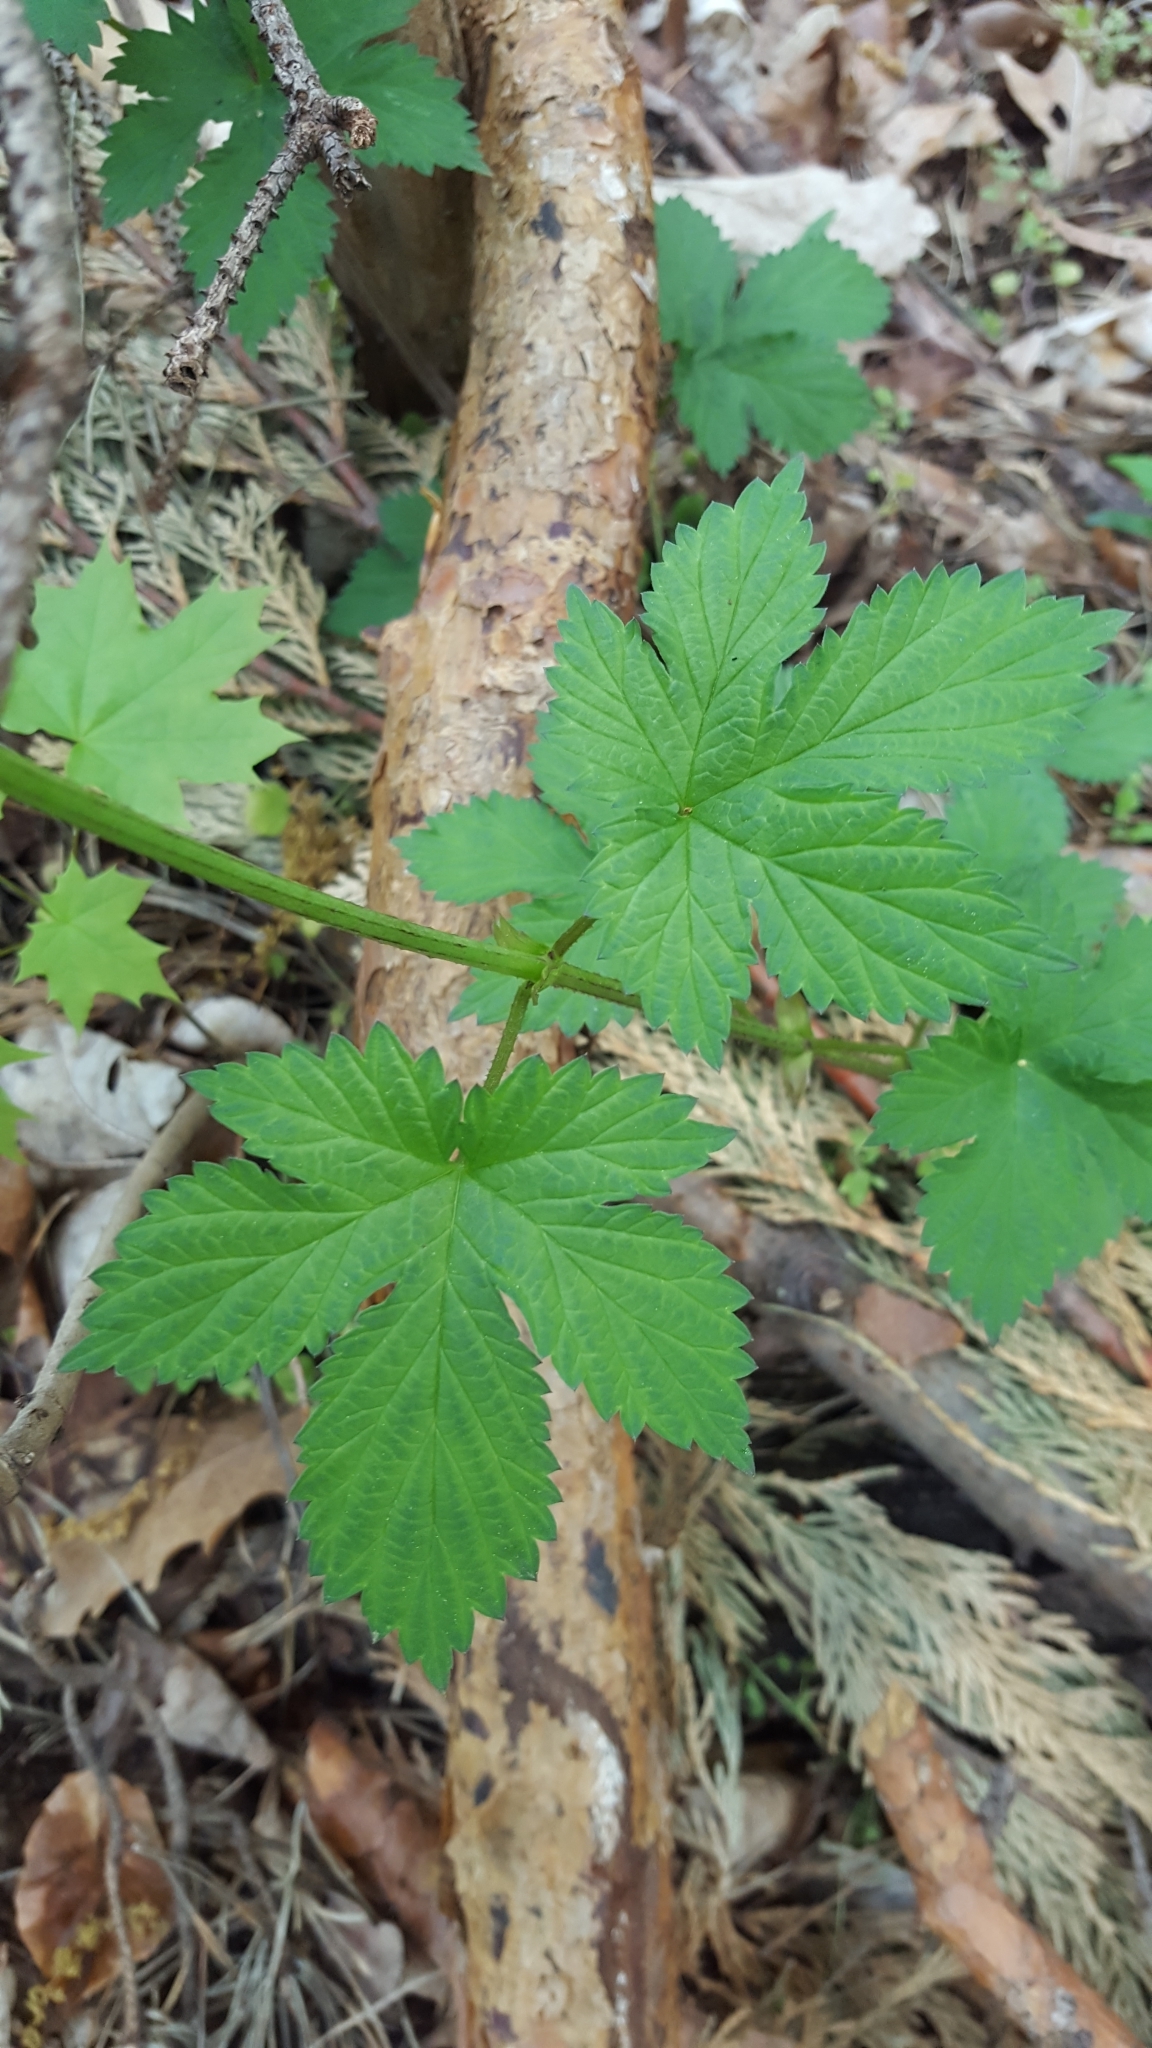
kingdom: Plantae
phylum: Tracheophyta
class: Magnoliopsida
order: Rosales
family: Cannabaceae
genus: Humulus
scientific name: Humulus lupulus
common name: Hop
